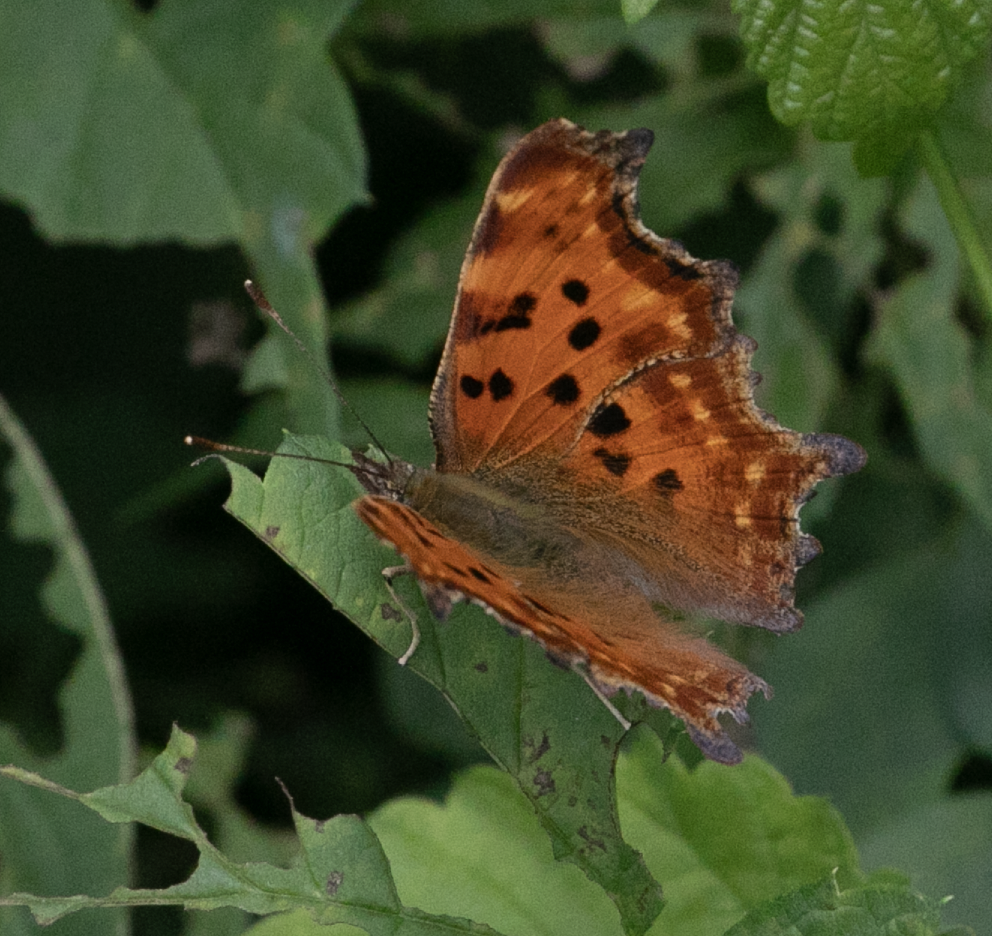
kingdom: Animalia
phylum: Arthropoda
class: Insecta
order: Lepidoptera
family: Nymphalidae
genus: Polygonia
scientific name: Polygonia c-album
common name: Comma
